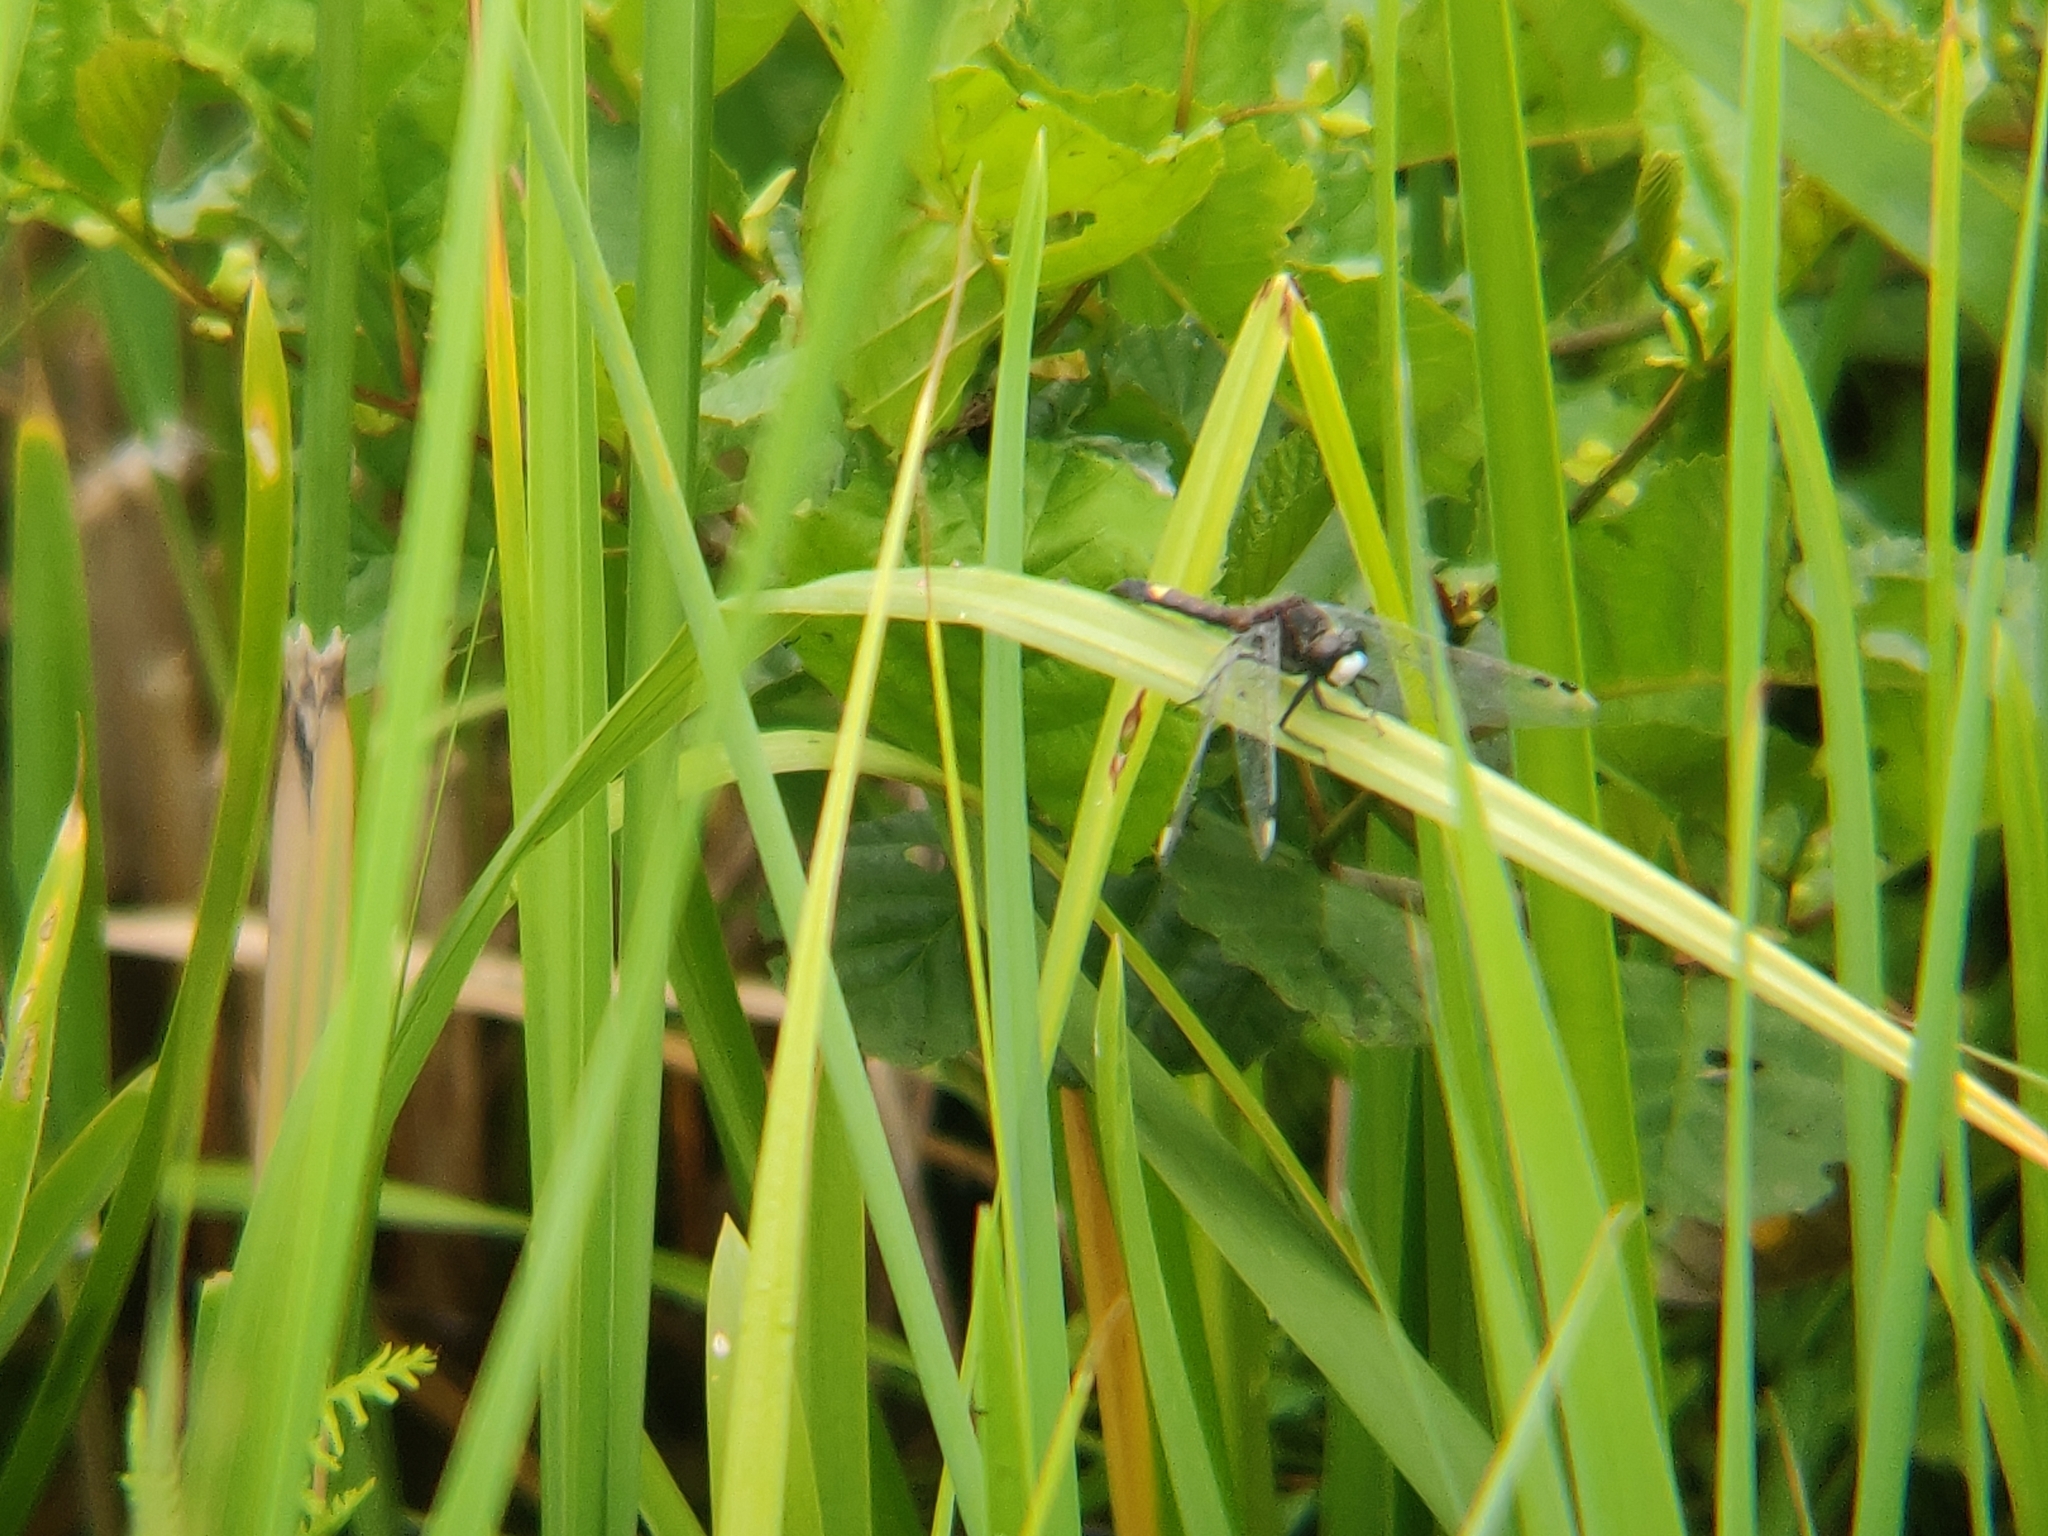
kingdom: Animalia
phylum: Arthropoda
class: Insecta
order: Odonata
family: Libellulidae
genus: Leucorrhinia
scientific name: Leucorrhinia pectoralis
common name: Yellow-spotted whiteface
